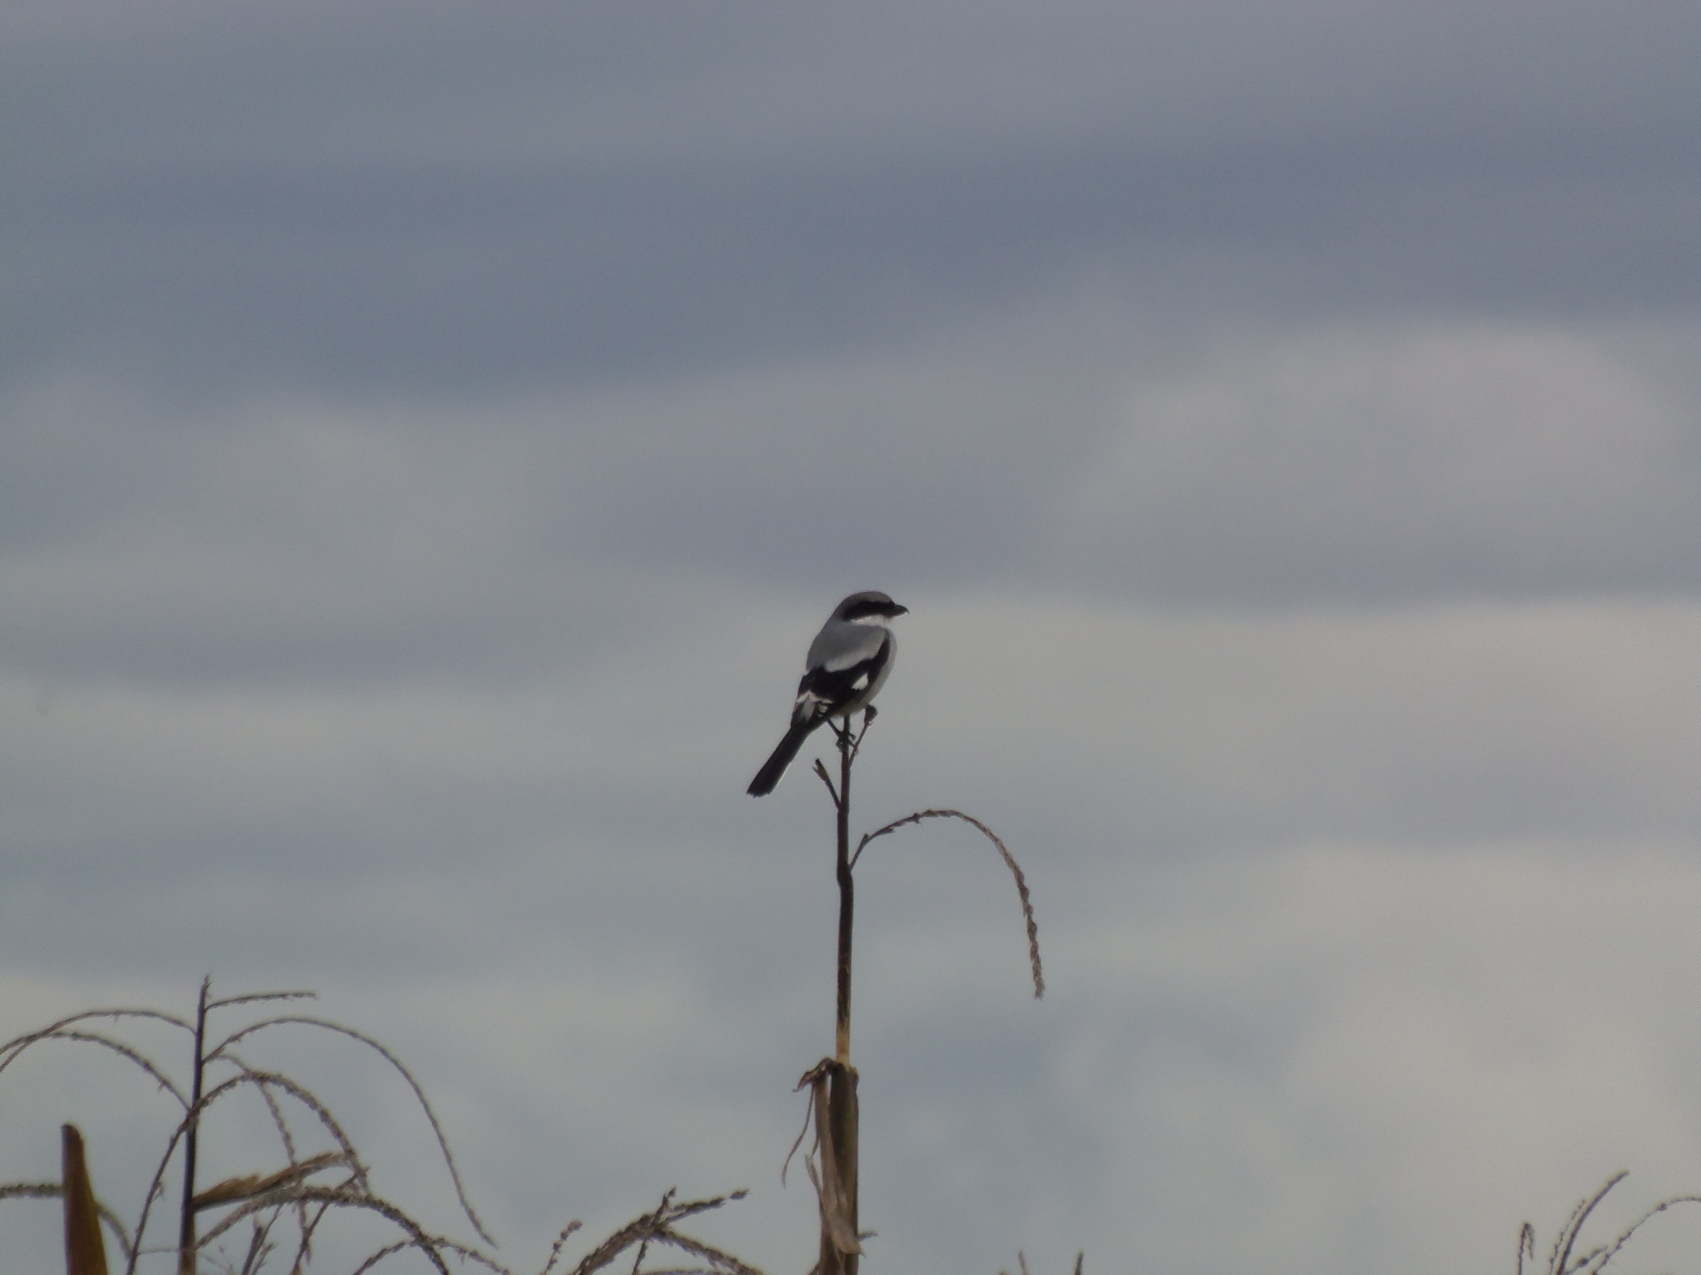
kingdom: Animalia
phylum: Chordata
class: Aves
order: Passeriformes
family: Laniidae
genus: Lanius
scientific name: Lanius ludovicianus
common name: Loggerhead shrike
